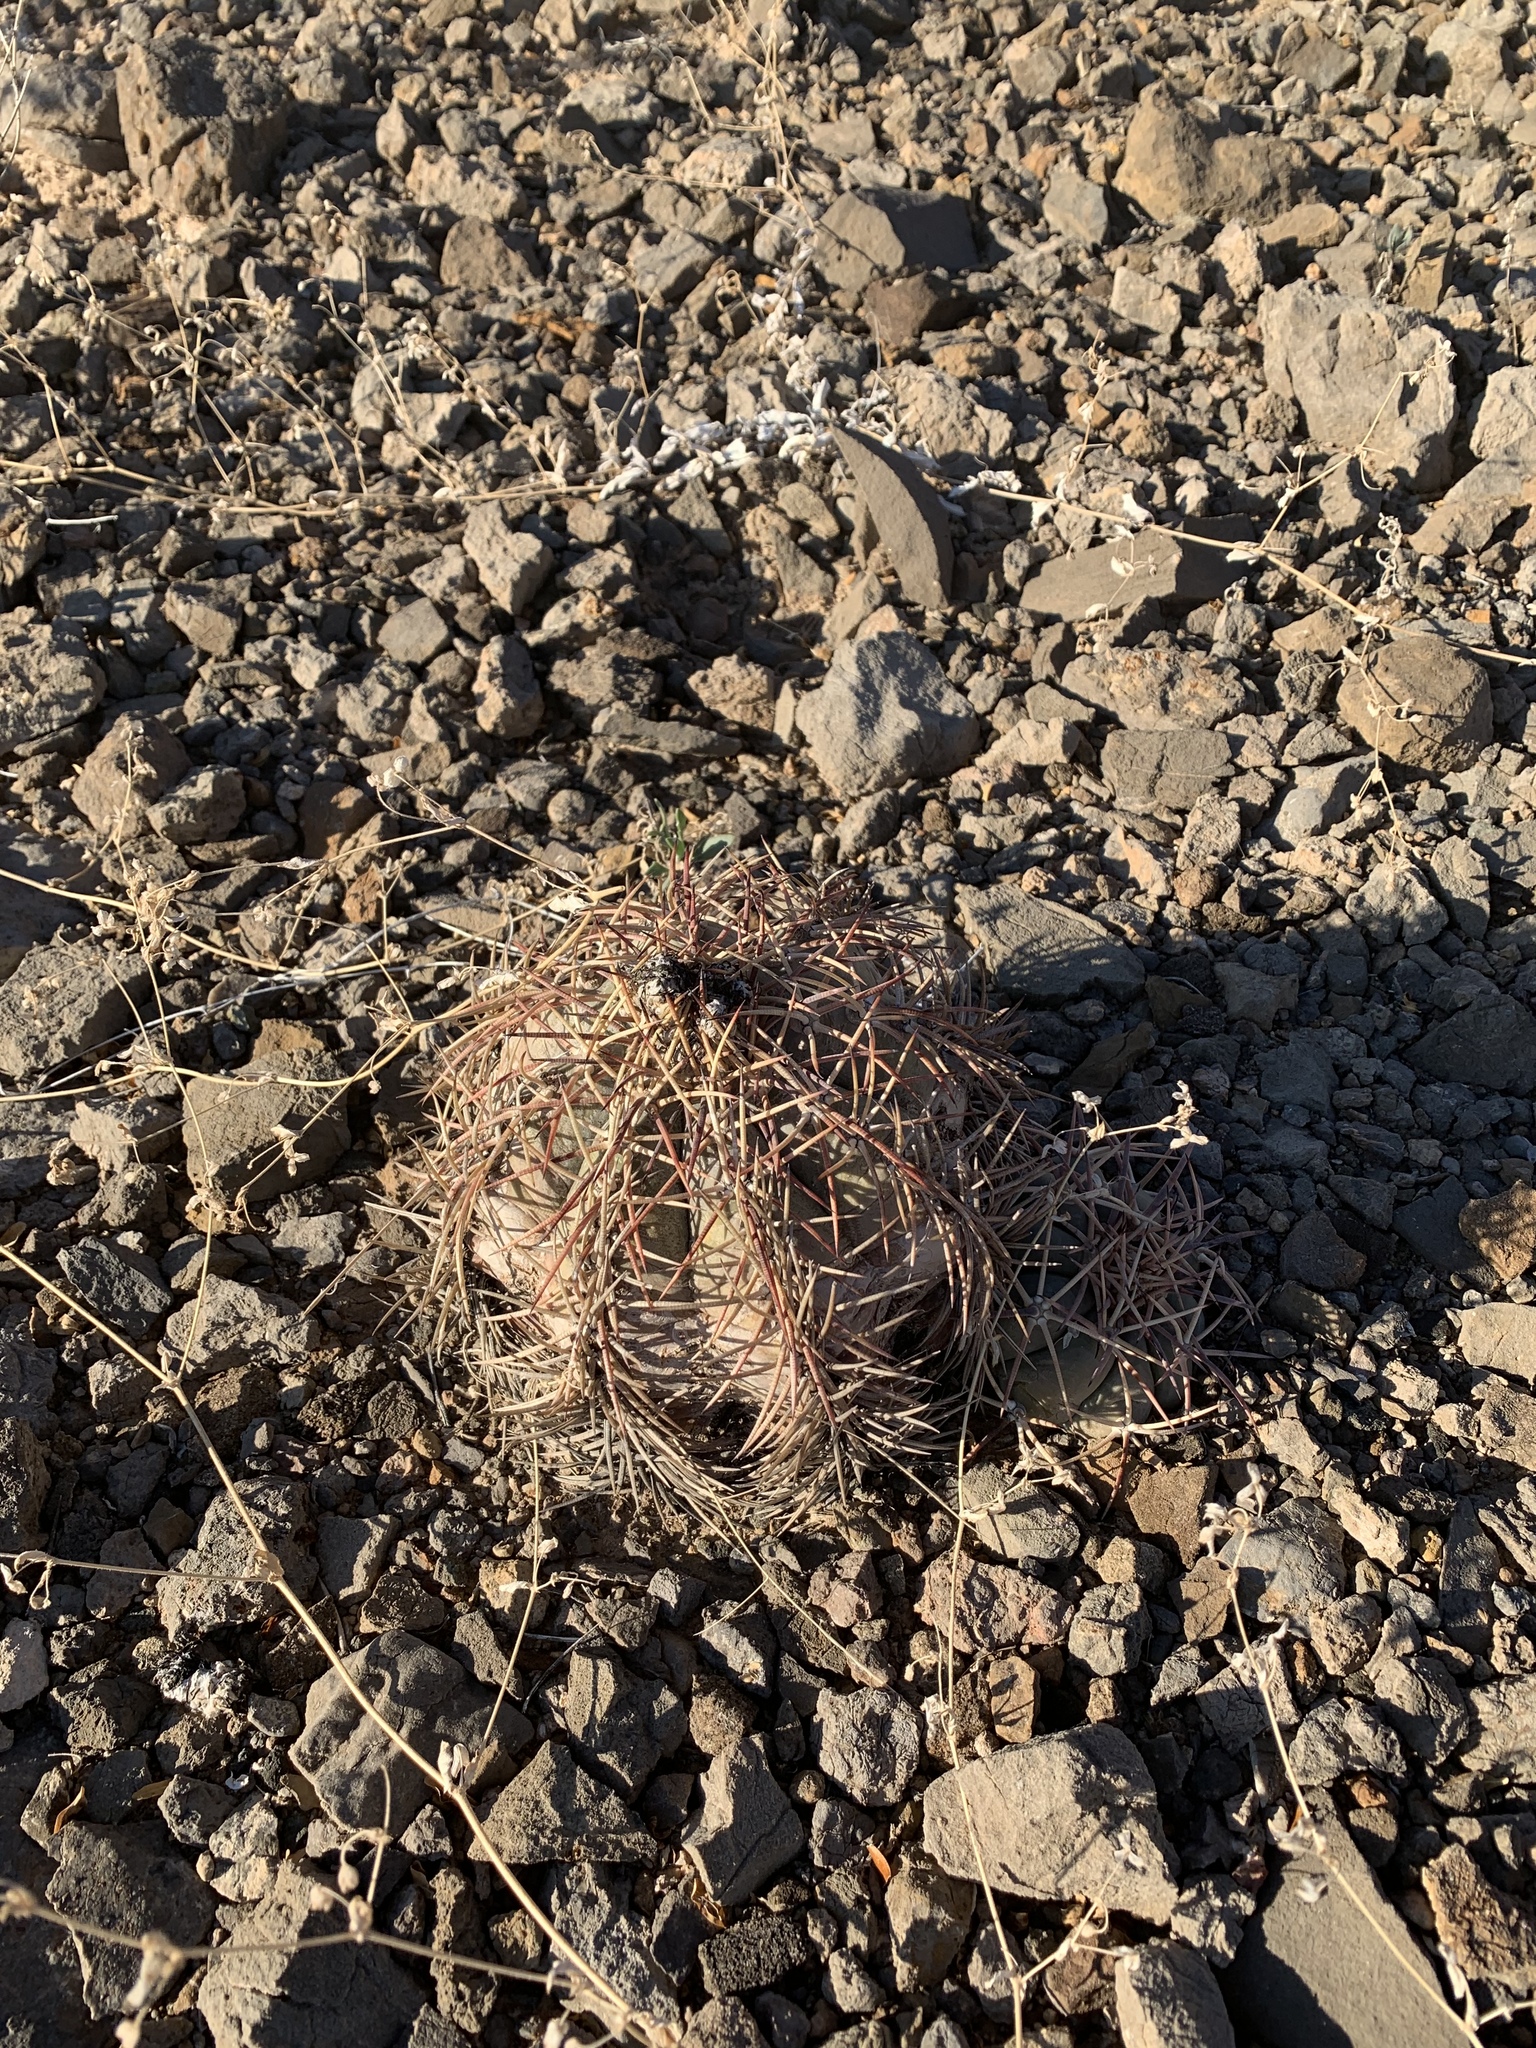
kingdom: Plantae
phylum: Tracheophyta
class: Magnoliopsida
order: Caryophyllales
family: Cactaceae
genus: Echinocactus
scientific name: Echinocactus horizonthalonius
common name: Devilshead
